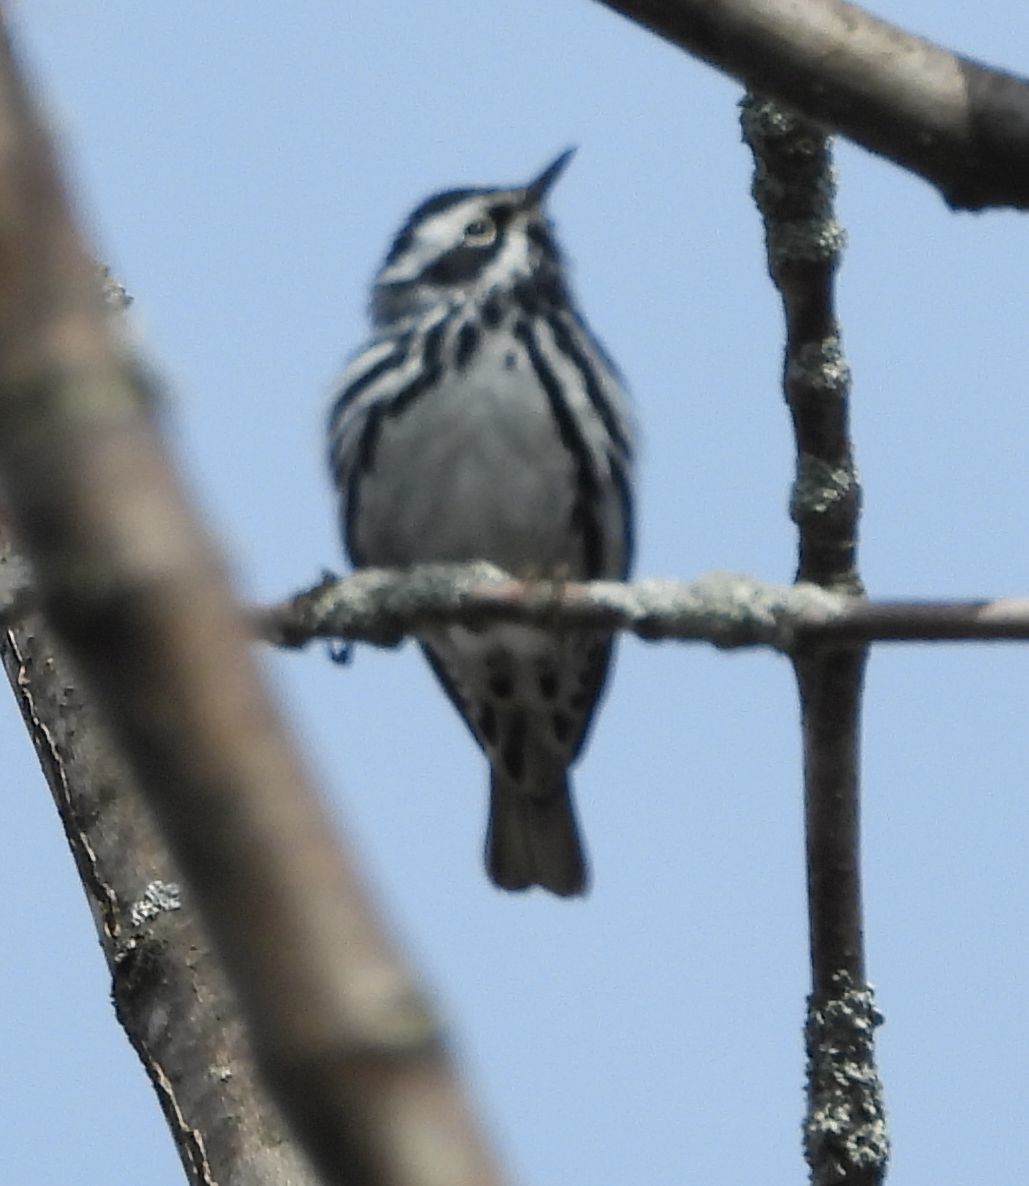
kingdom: Animalia
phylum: Chordata
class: Aves
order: Passeriformes
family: Parulidae
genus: Mniotilta
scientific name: Mniotilta varia
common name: Black-and-white warbler
